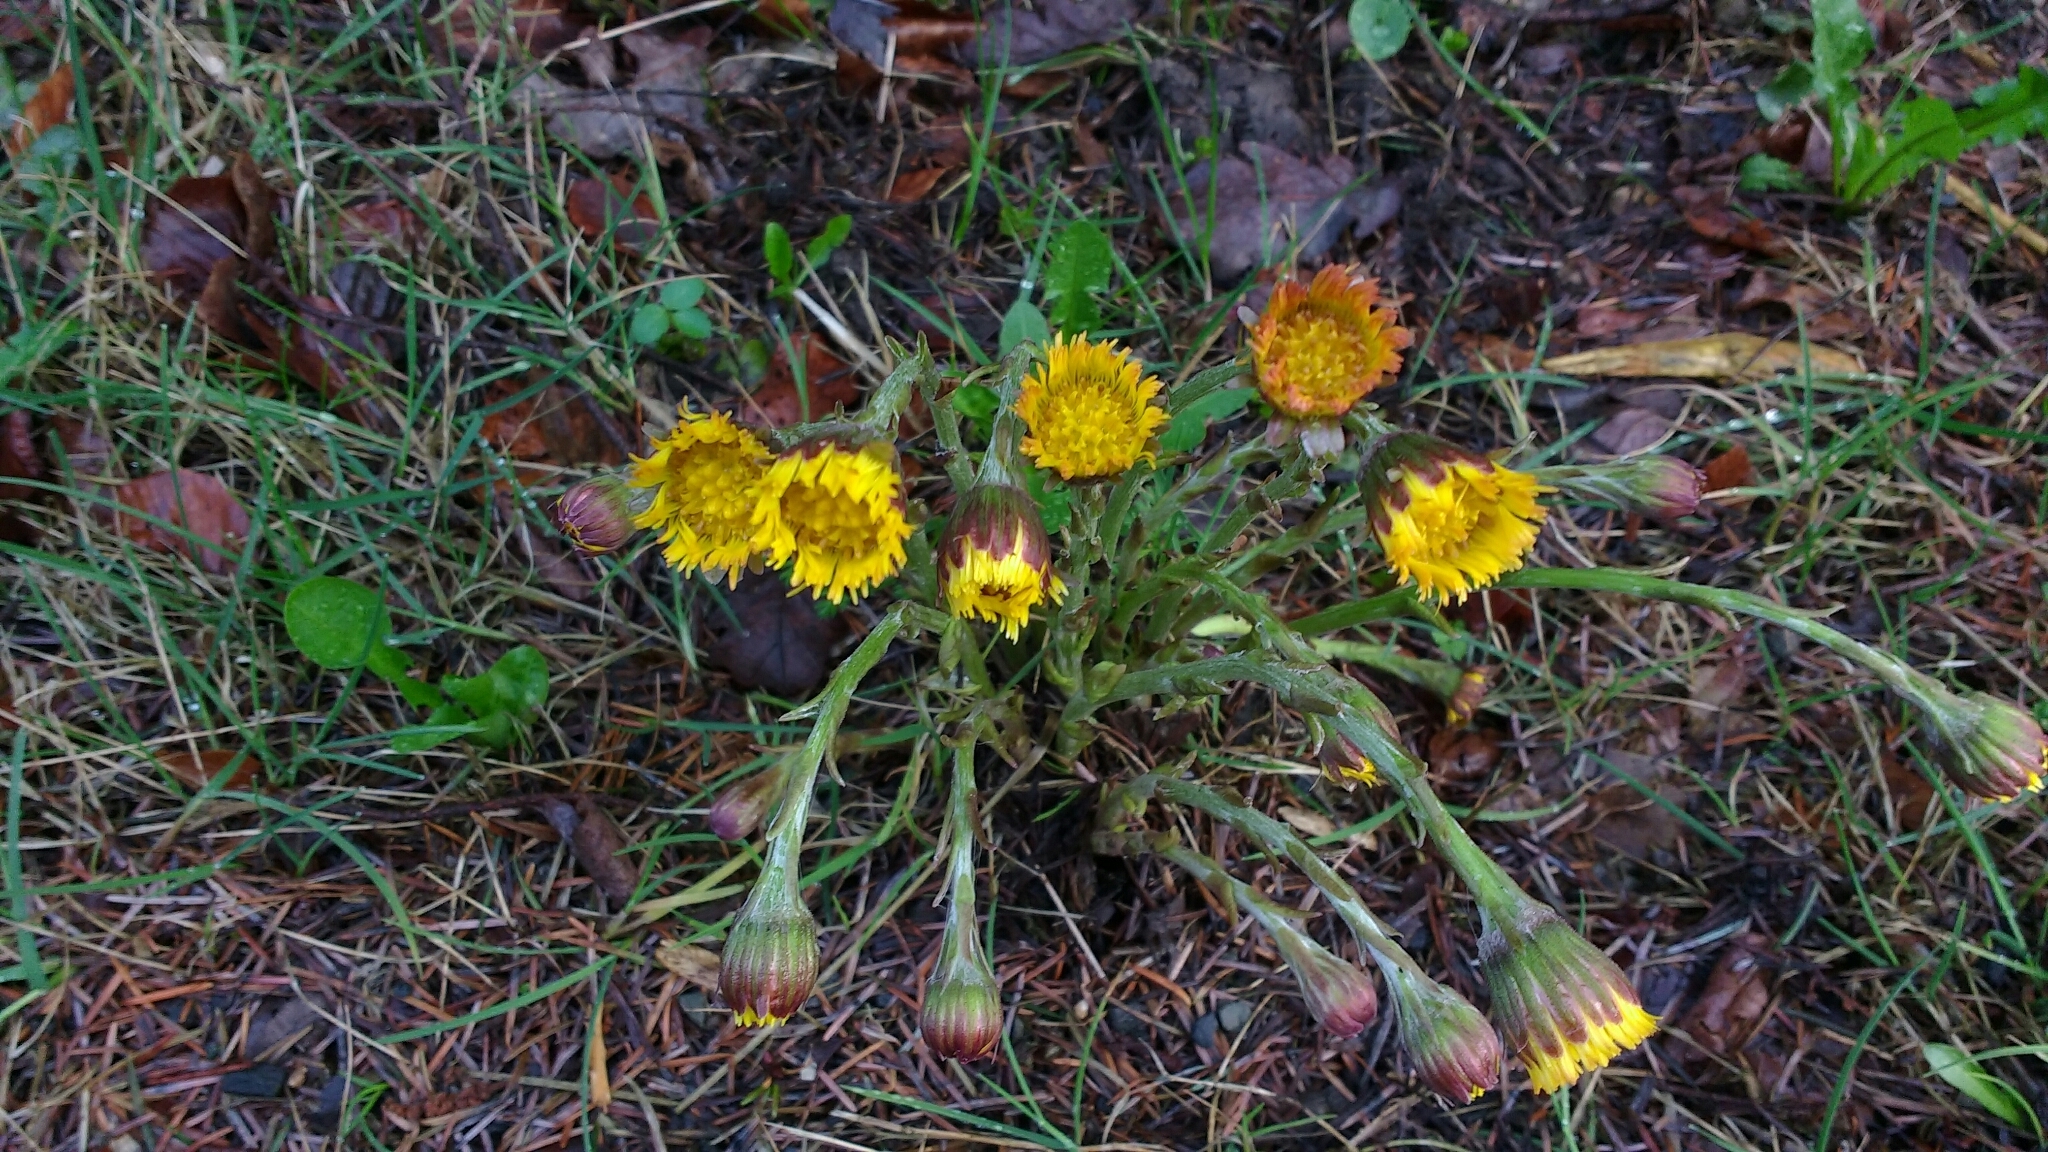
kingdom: Plantae
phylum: Tracheophyta
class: Magnoliopsida
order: Asterales
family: Asteraceae
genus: Tussilago
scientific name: Tussilago farfara
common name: Coltsfoot
